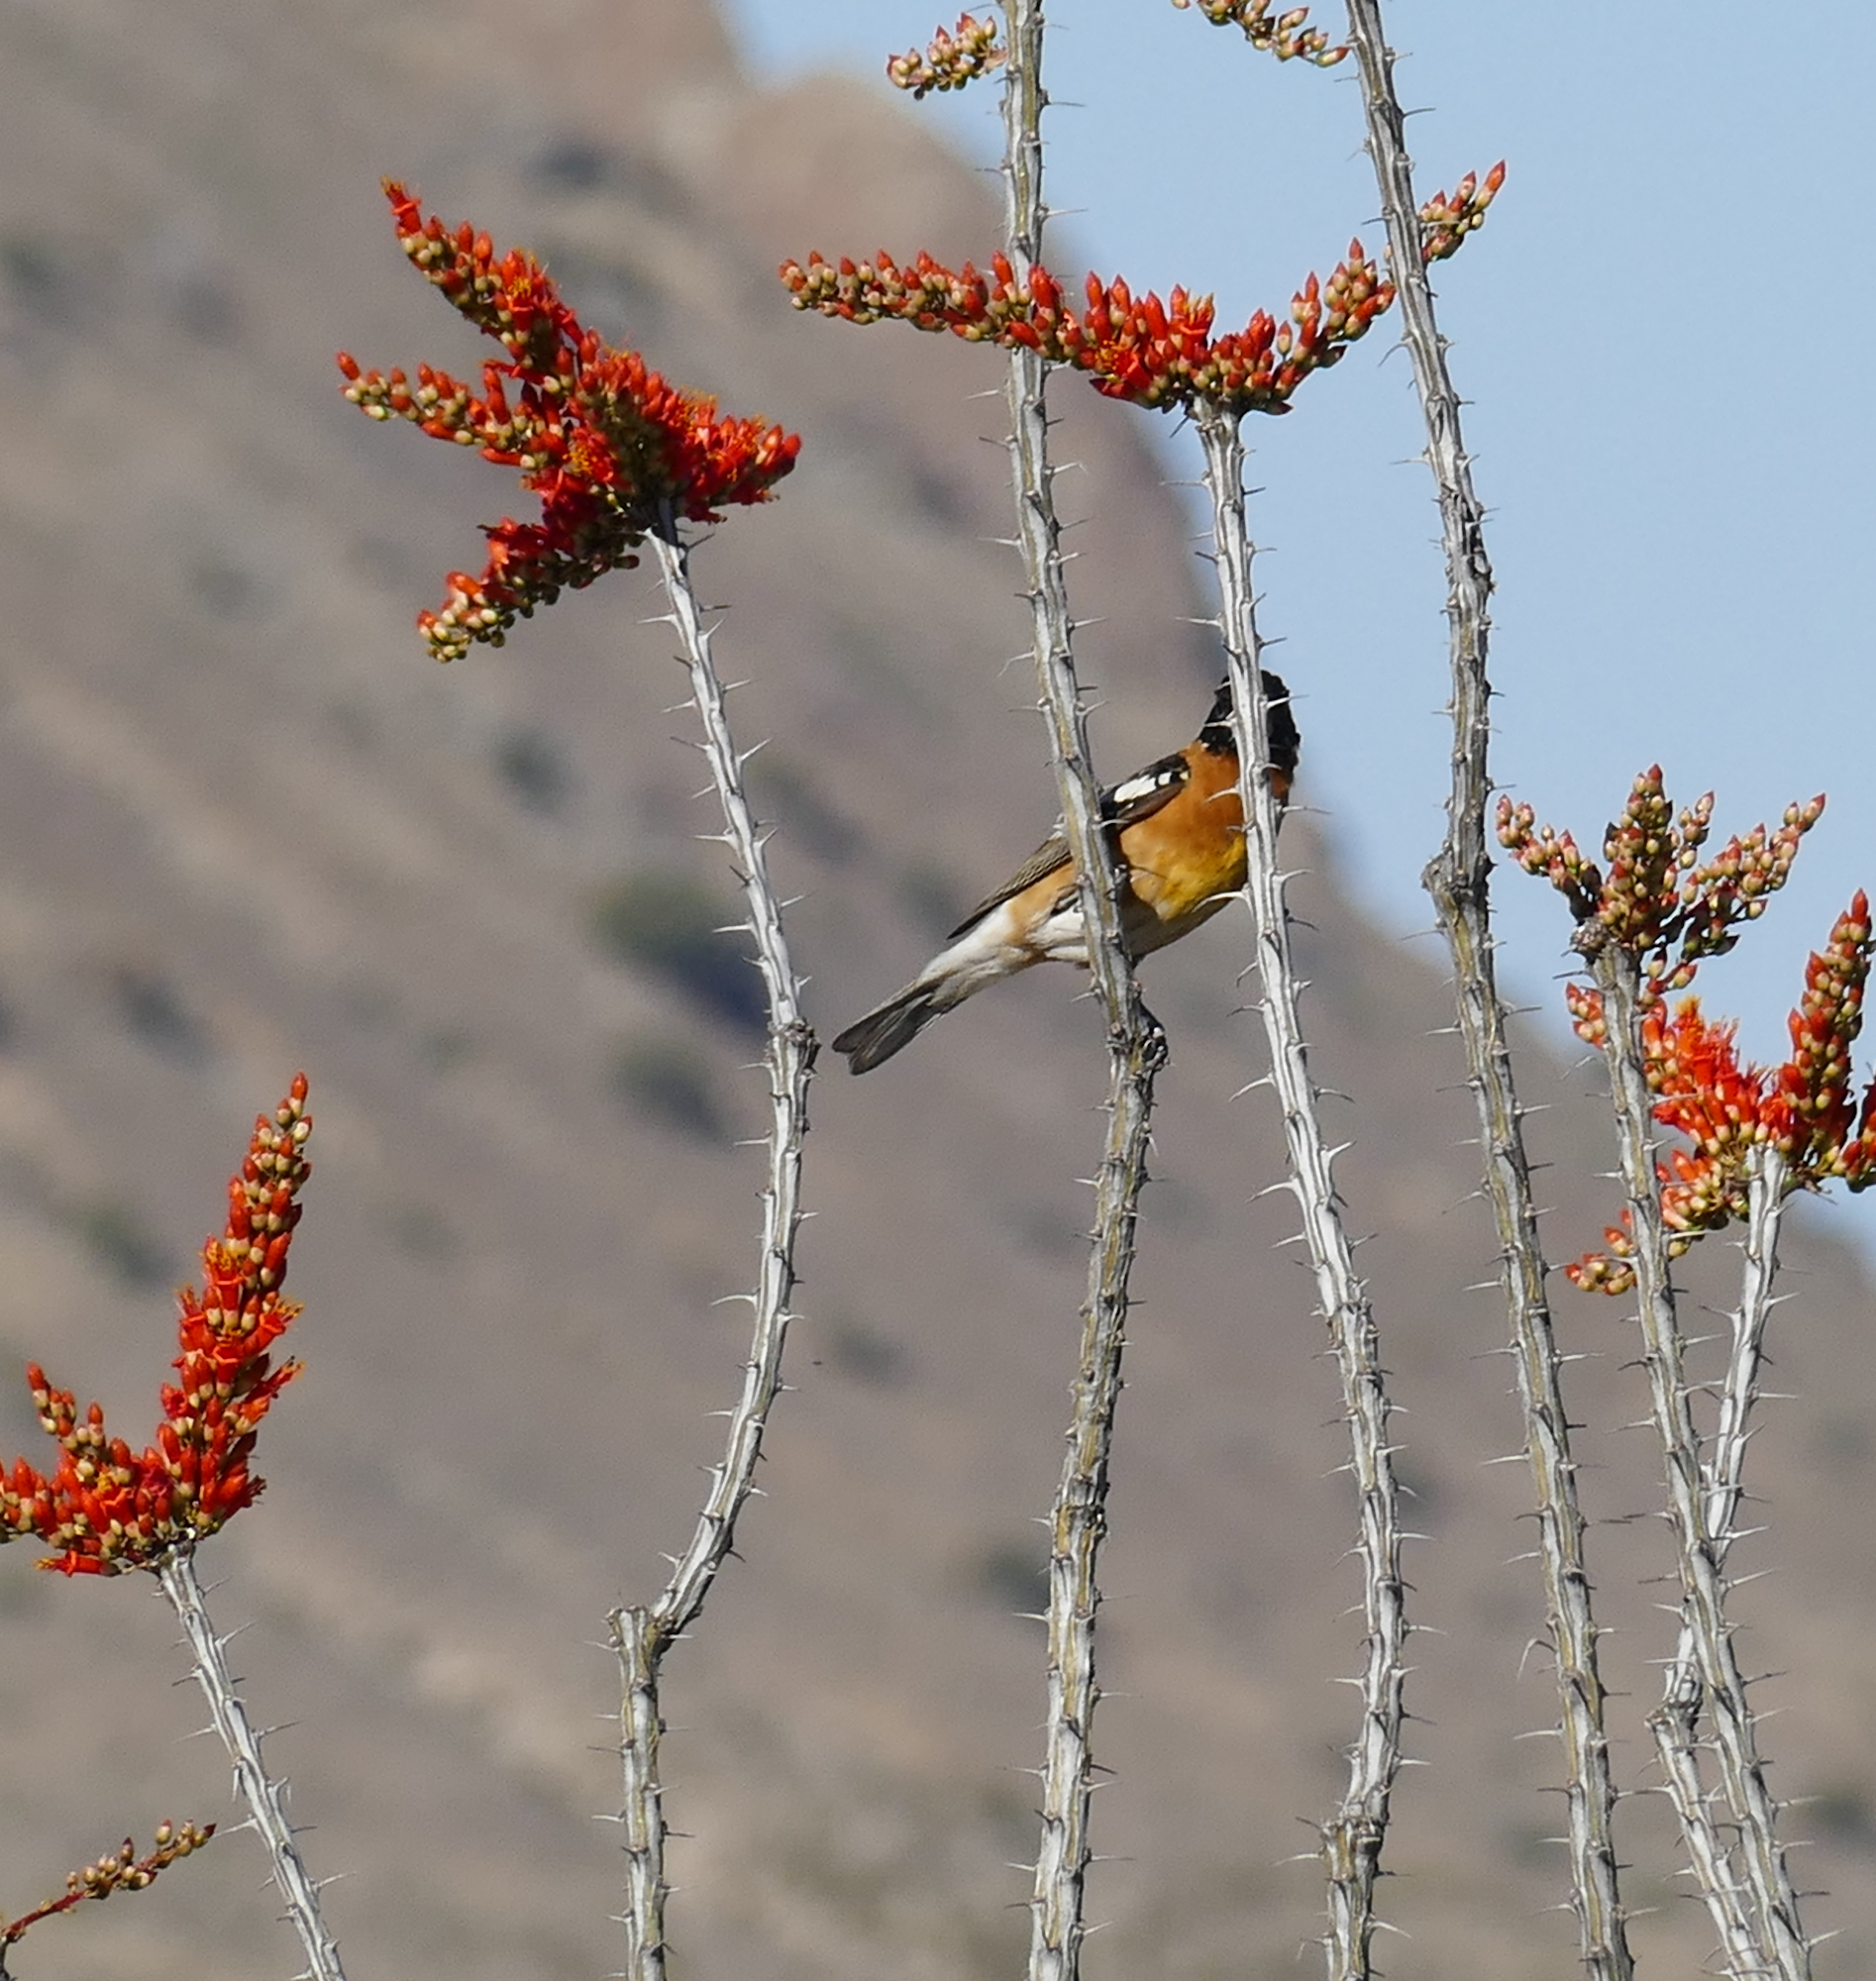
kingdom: Animalia
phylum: Chordata
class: Aves
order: Passeriformes
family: Cardinalidae
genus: Pheucticus
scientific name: Pheucticus melanocephalus
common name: Black-headed grosbeak
